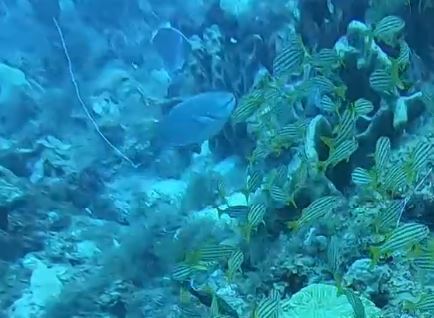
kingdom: Animalia
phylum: Chordata
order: Perciformes
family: Scaridae
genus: Sparisoma
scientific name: Sparisoma
